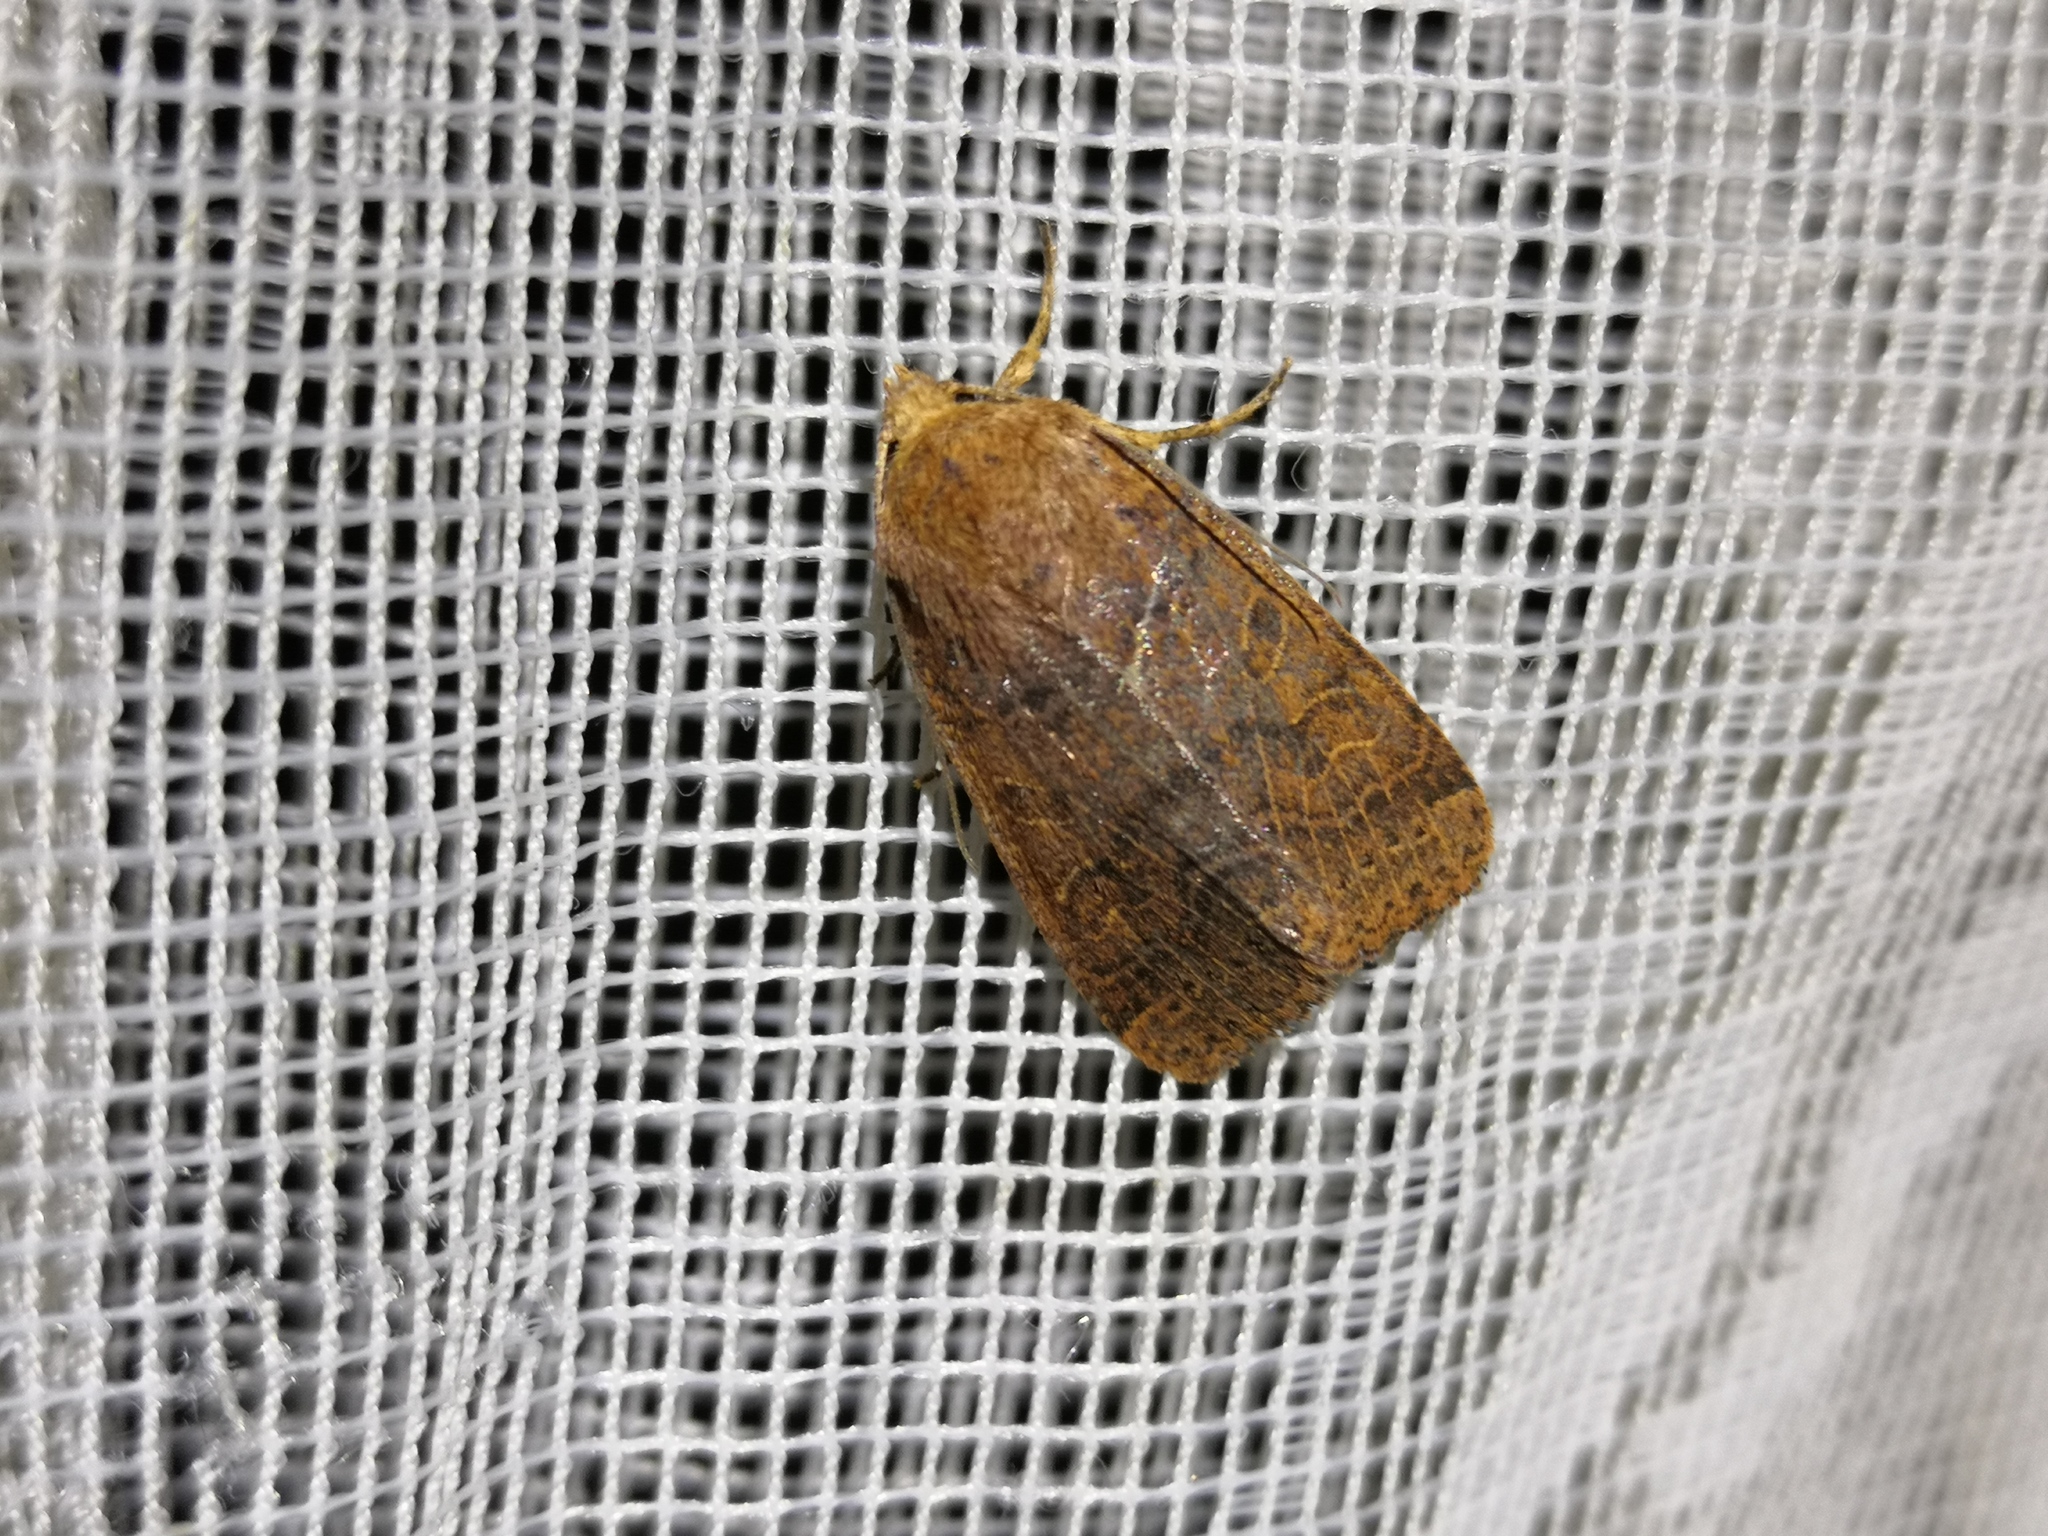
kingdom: Animalia
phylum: Arthropoda
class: Insecta
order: Lepidoptera
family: Noctuidae
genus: Agrochola
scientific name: Agrochola nitida
